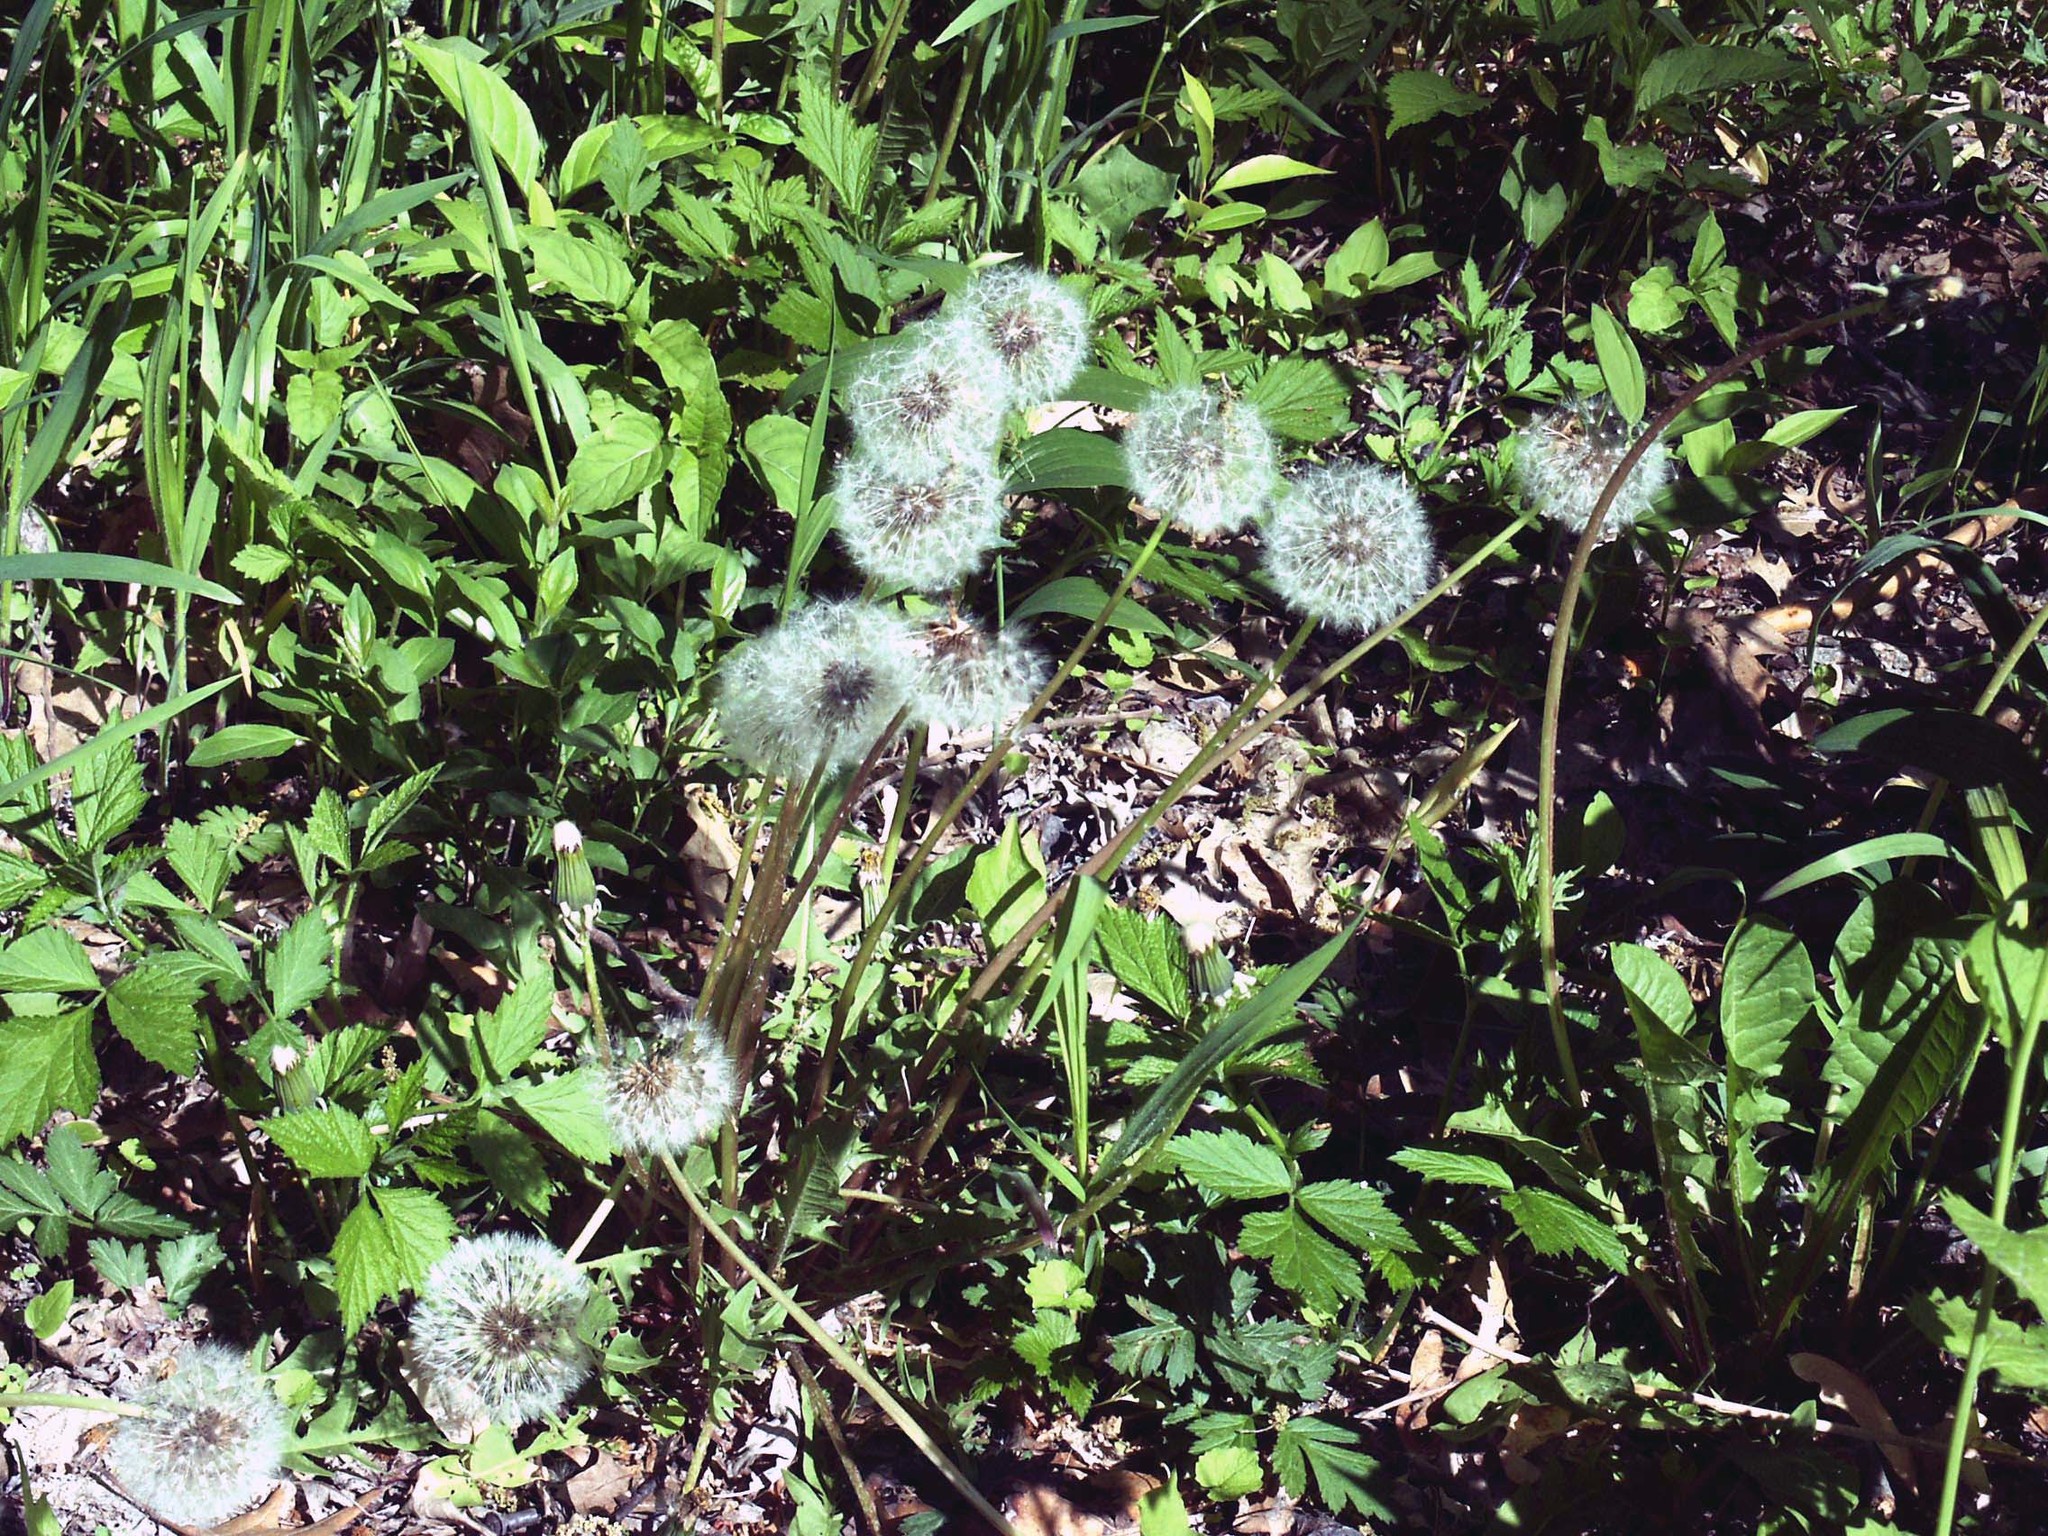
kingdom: Plantae
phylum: Tracheophyta
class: Magnoliopsida
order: Asterales
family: Asteraceae
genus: Taraxacum
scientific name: Taraxacum officinale
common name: Common dandelion
